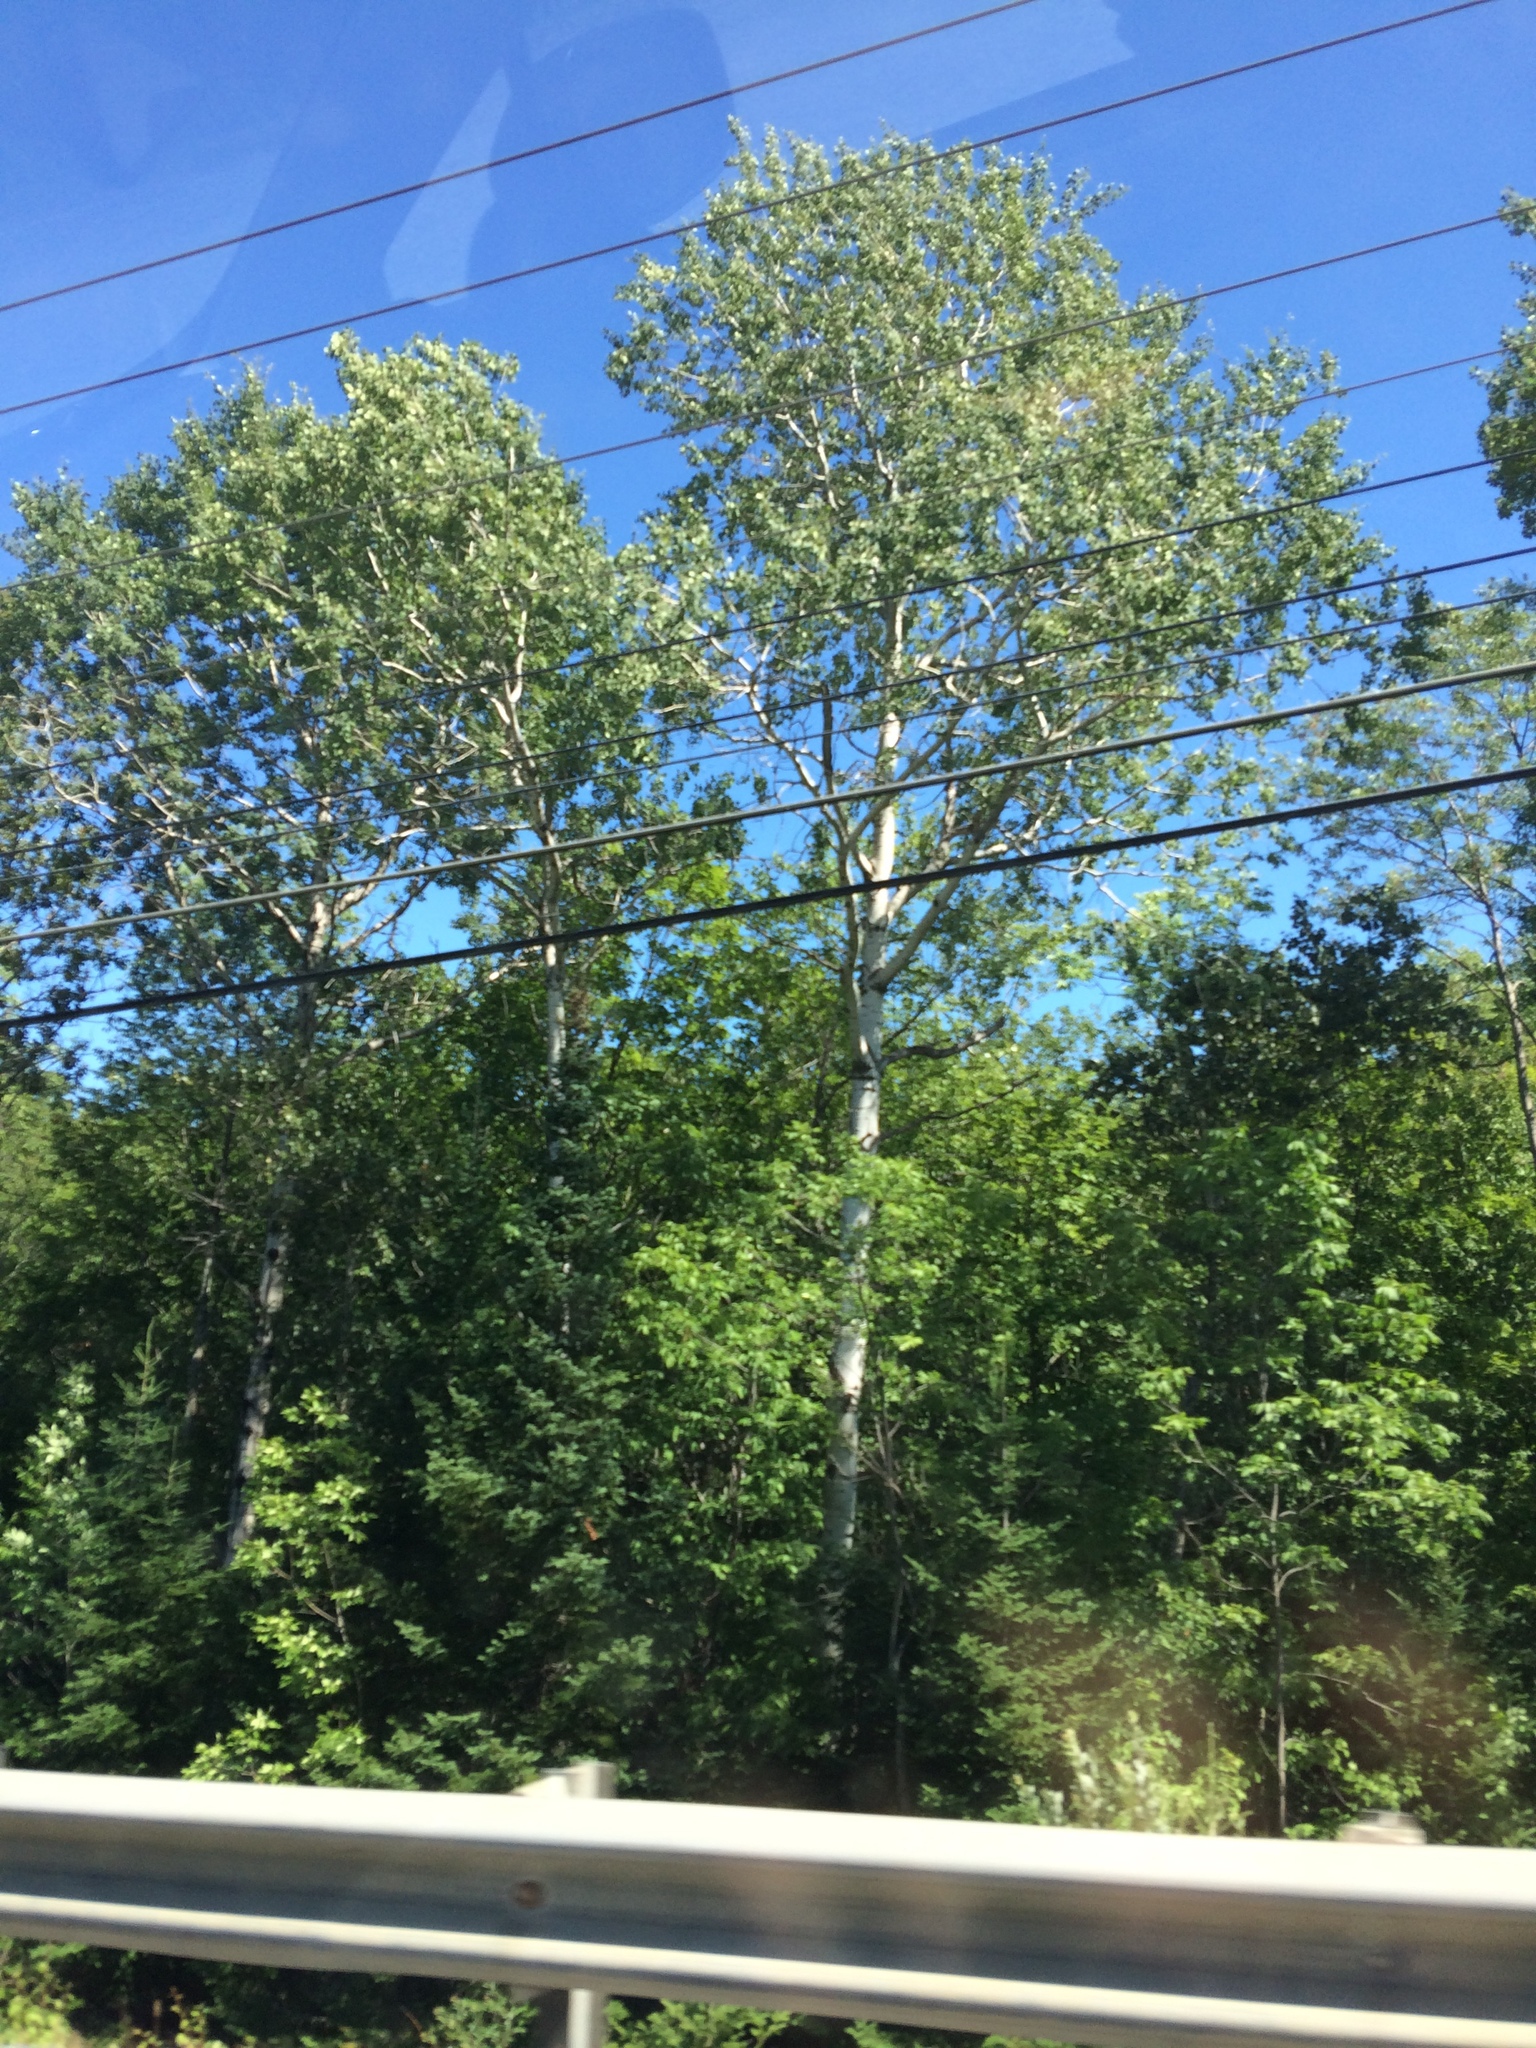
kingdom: Plantae
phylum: Tracheophyta
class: Magnoliopsida
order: Malpighiales
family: Salicaceae
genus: Populus
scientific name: Populus tremuloides
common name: Quaking aspen
